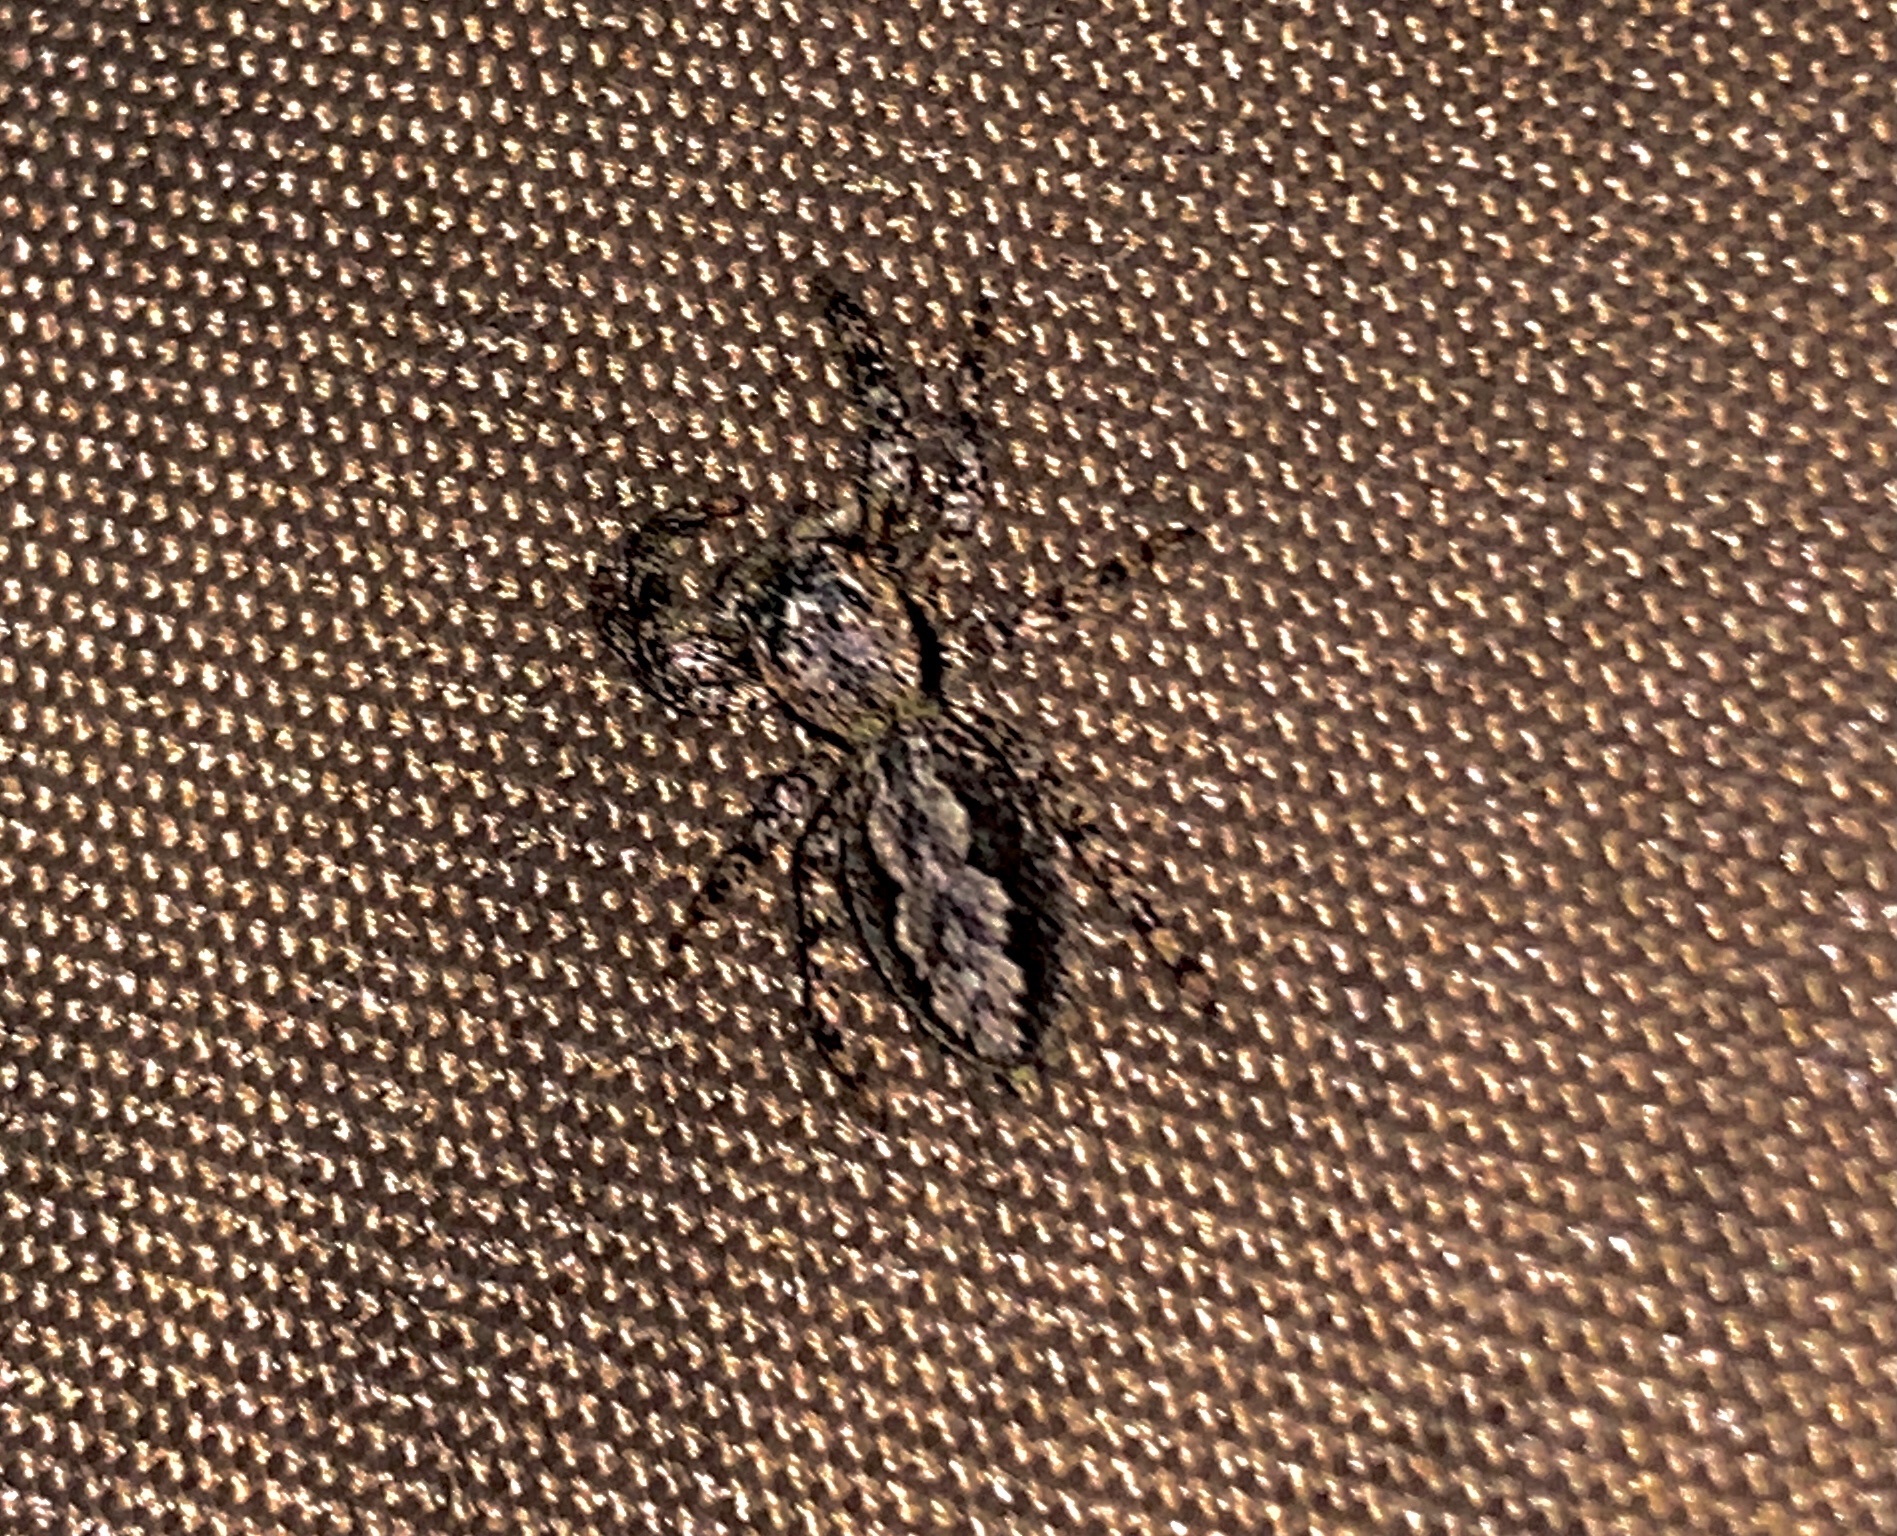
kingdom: Animalia
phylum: Arthropoda
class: Arachnida
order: Araneae
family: Salticidae
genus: Platycryptus
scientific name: Platycryptus undatus
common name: Tan jumping spider
